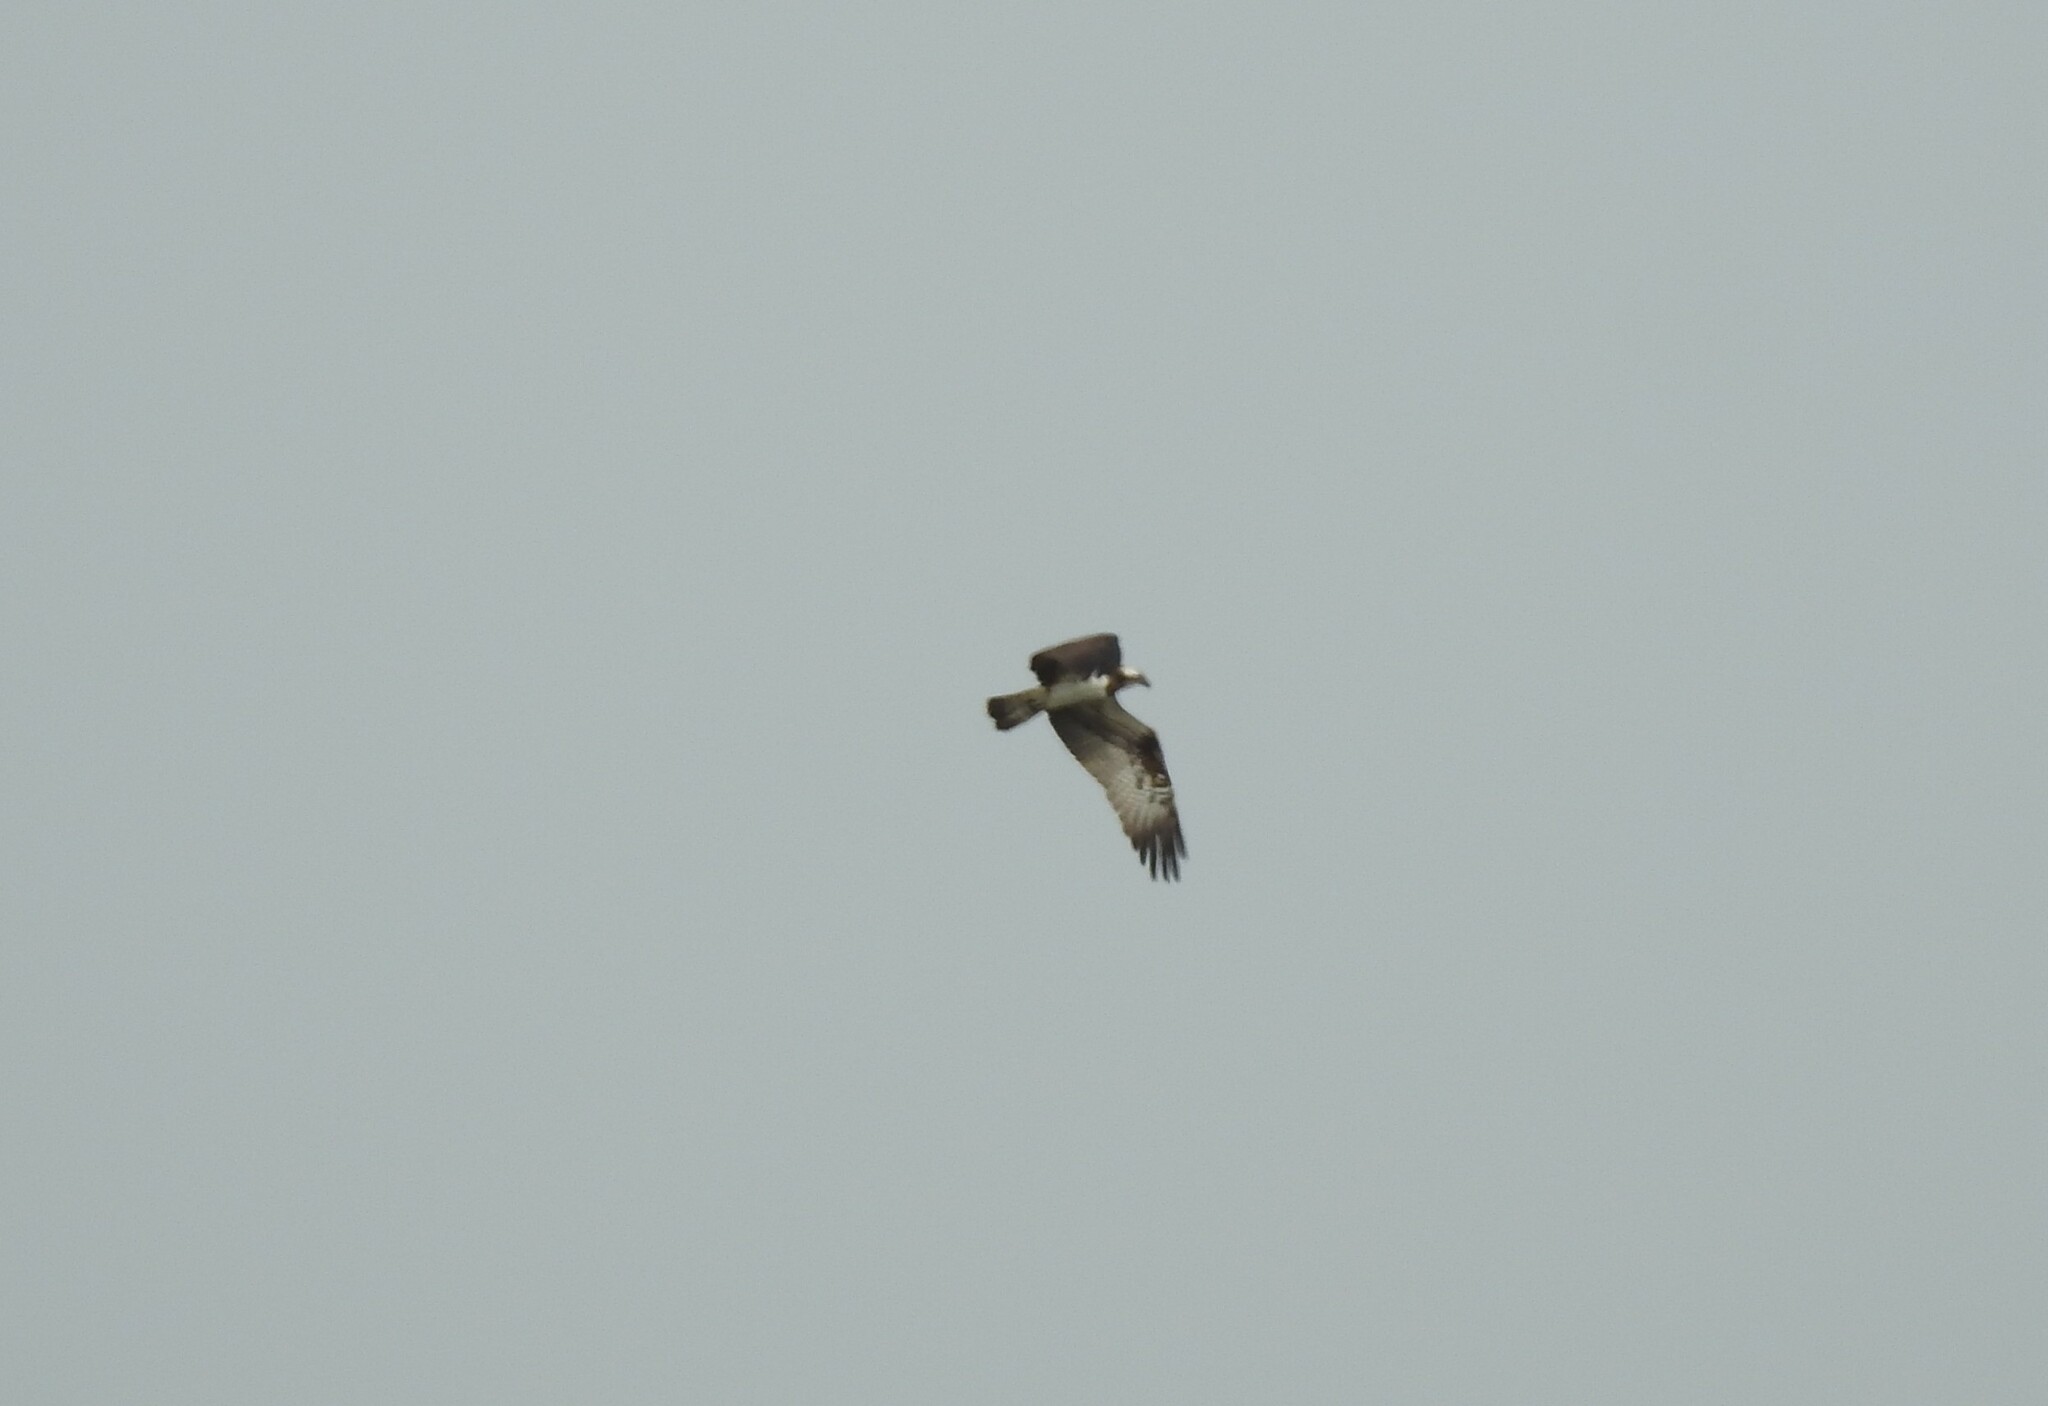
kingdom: Animalia
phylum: Chordata
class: Aves
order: Accipitriformes
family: Pandionidae
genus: Pandion
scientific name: Pandion haliaetus
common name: Osprey
